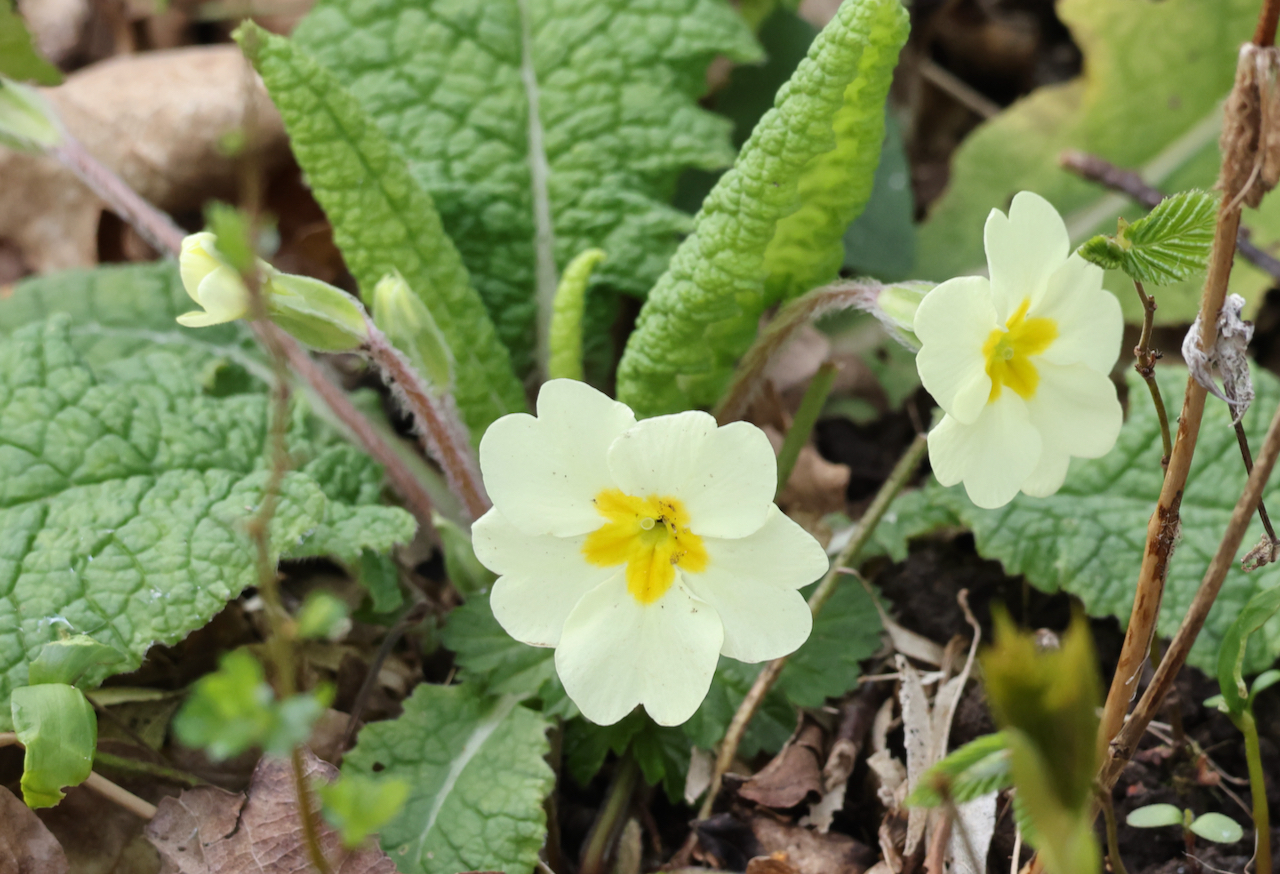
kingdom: Plantae
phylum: Tracheophyta
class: Magnoliopsida
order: Ericales
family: Primulaceae
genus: Primula
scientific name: Primula vulgaris
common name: Primrose
